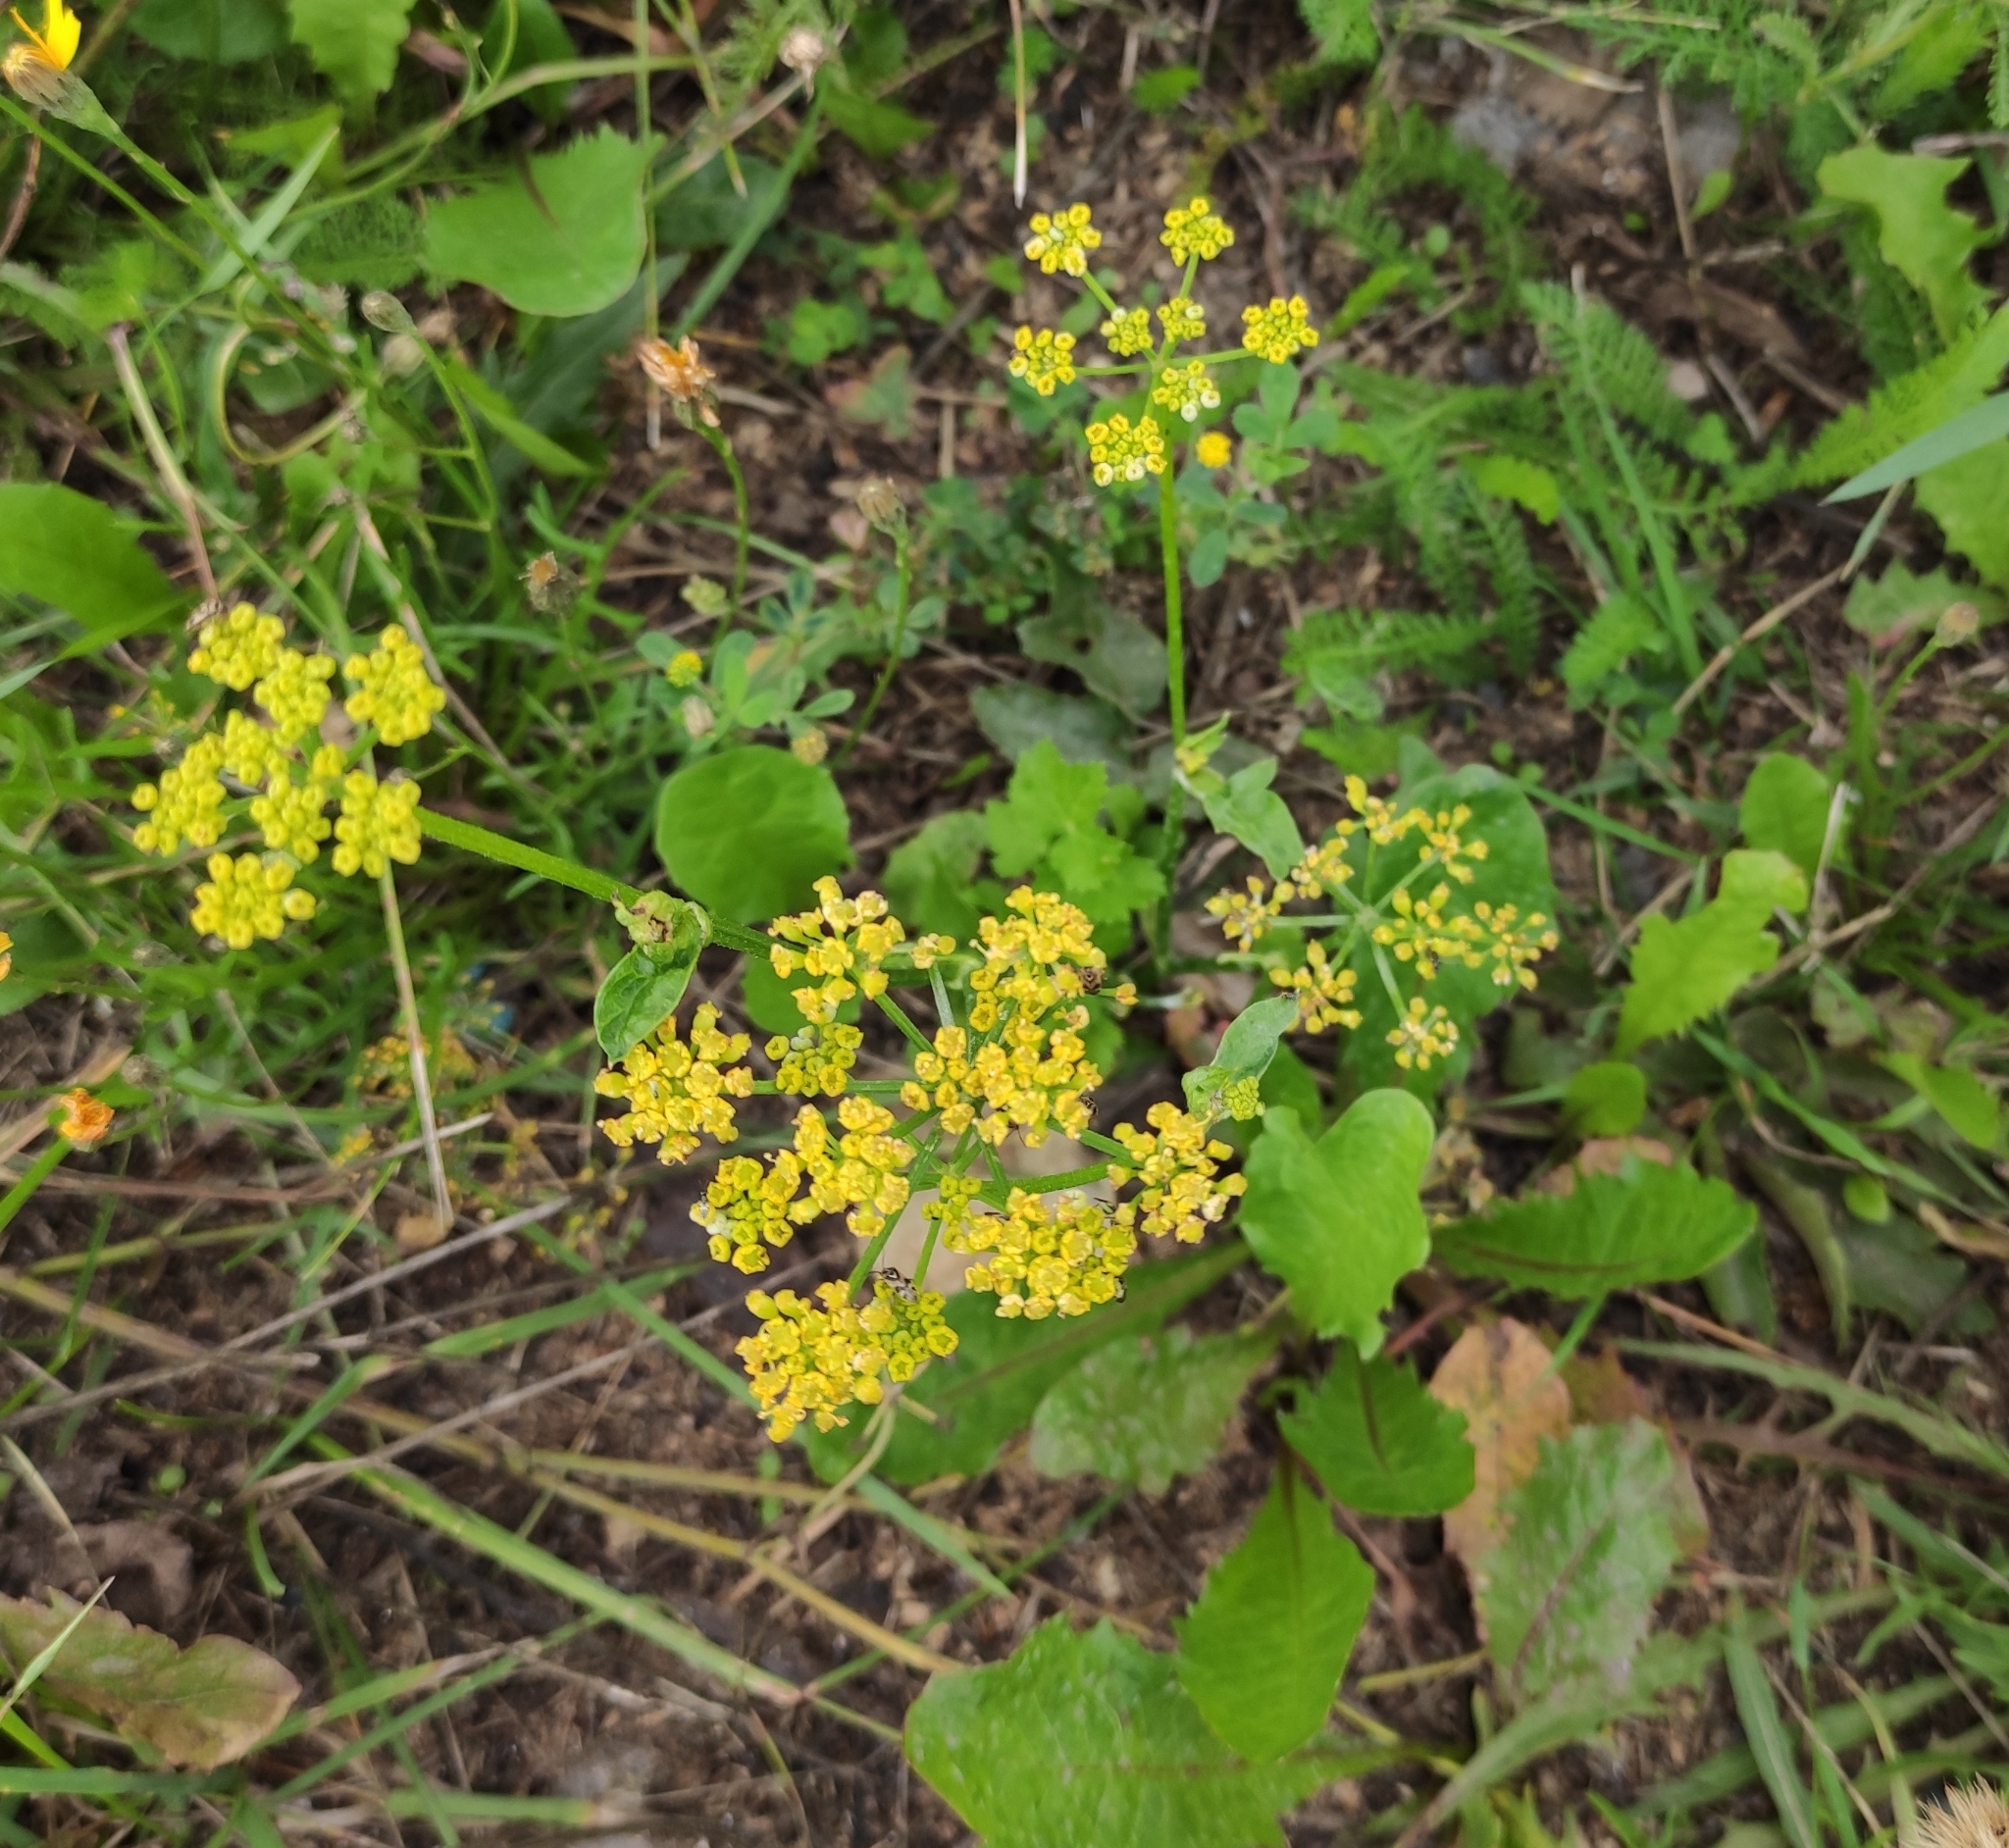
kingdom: Plantae
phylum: Tracheophyta
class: Magnoliopsida
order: Apiales
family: Apiaceae
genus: Pastinaca
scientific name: Pastinaca sativa
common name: Wild parsnip
